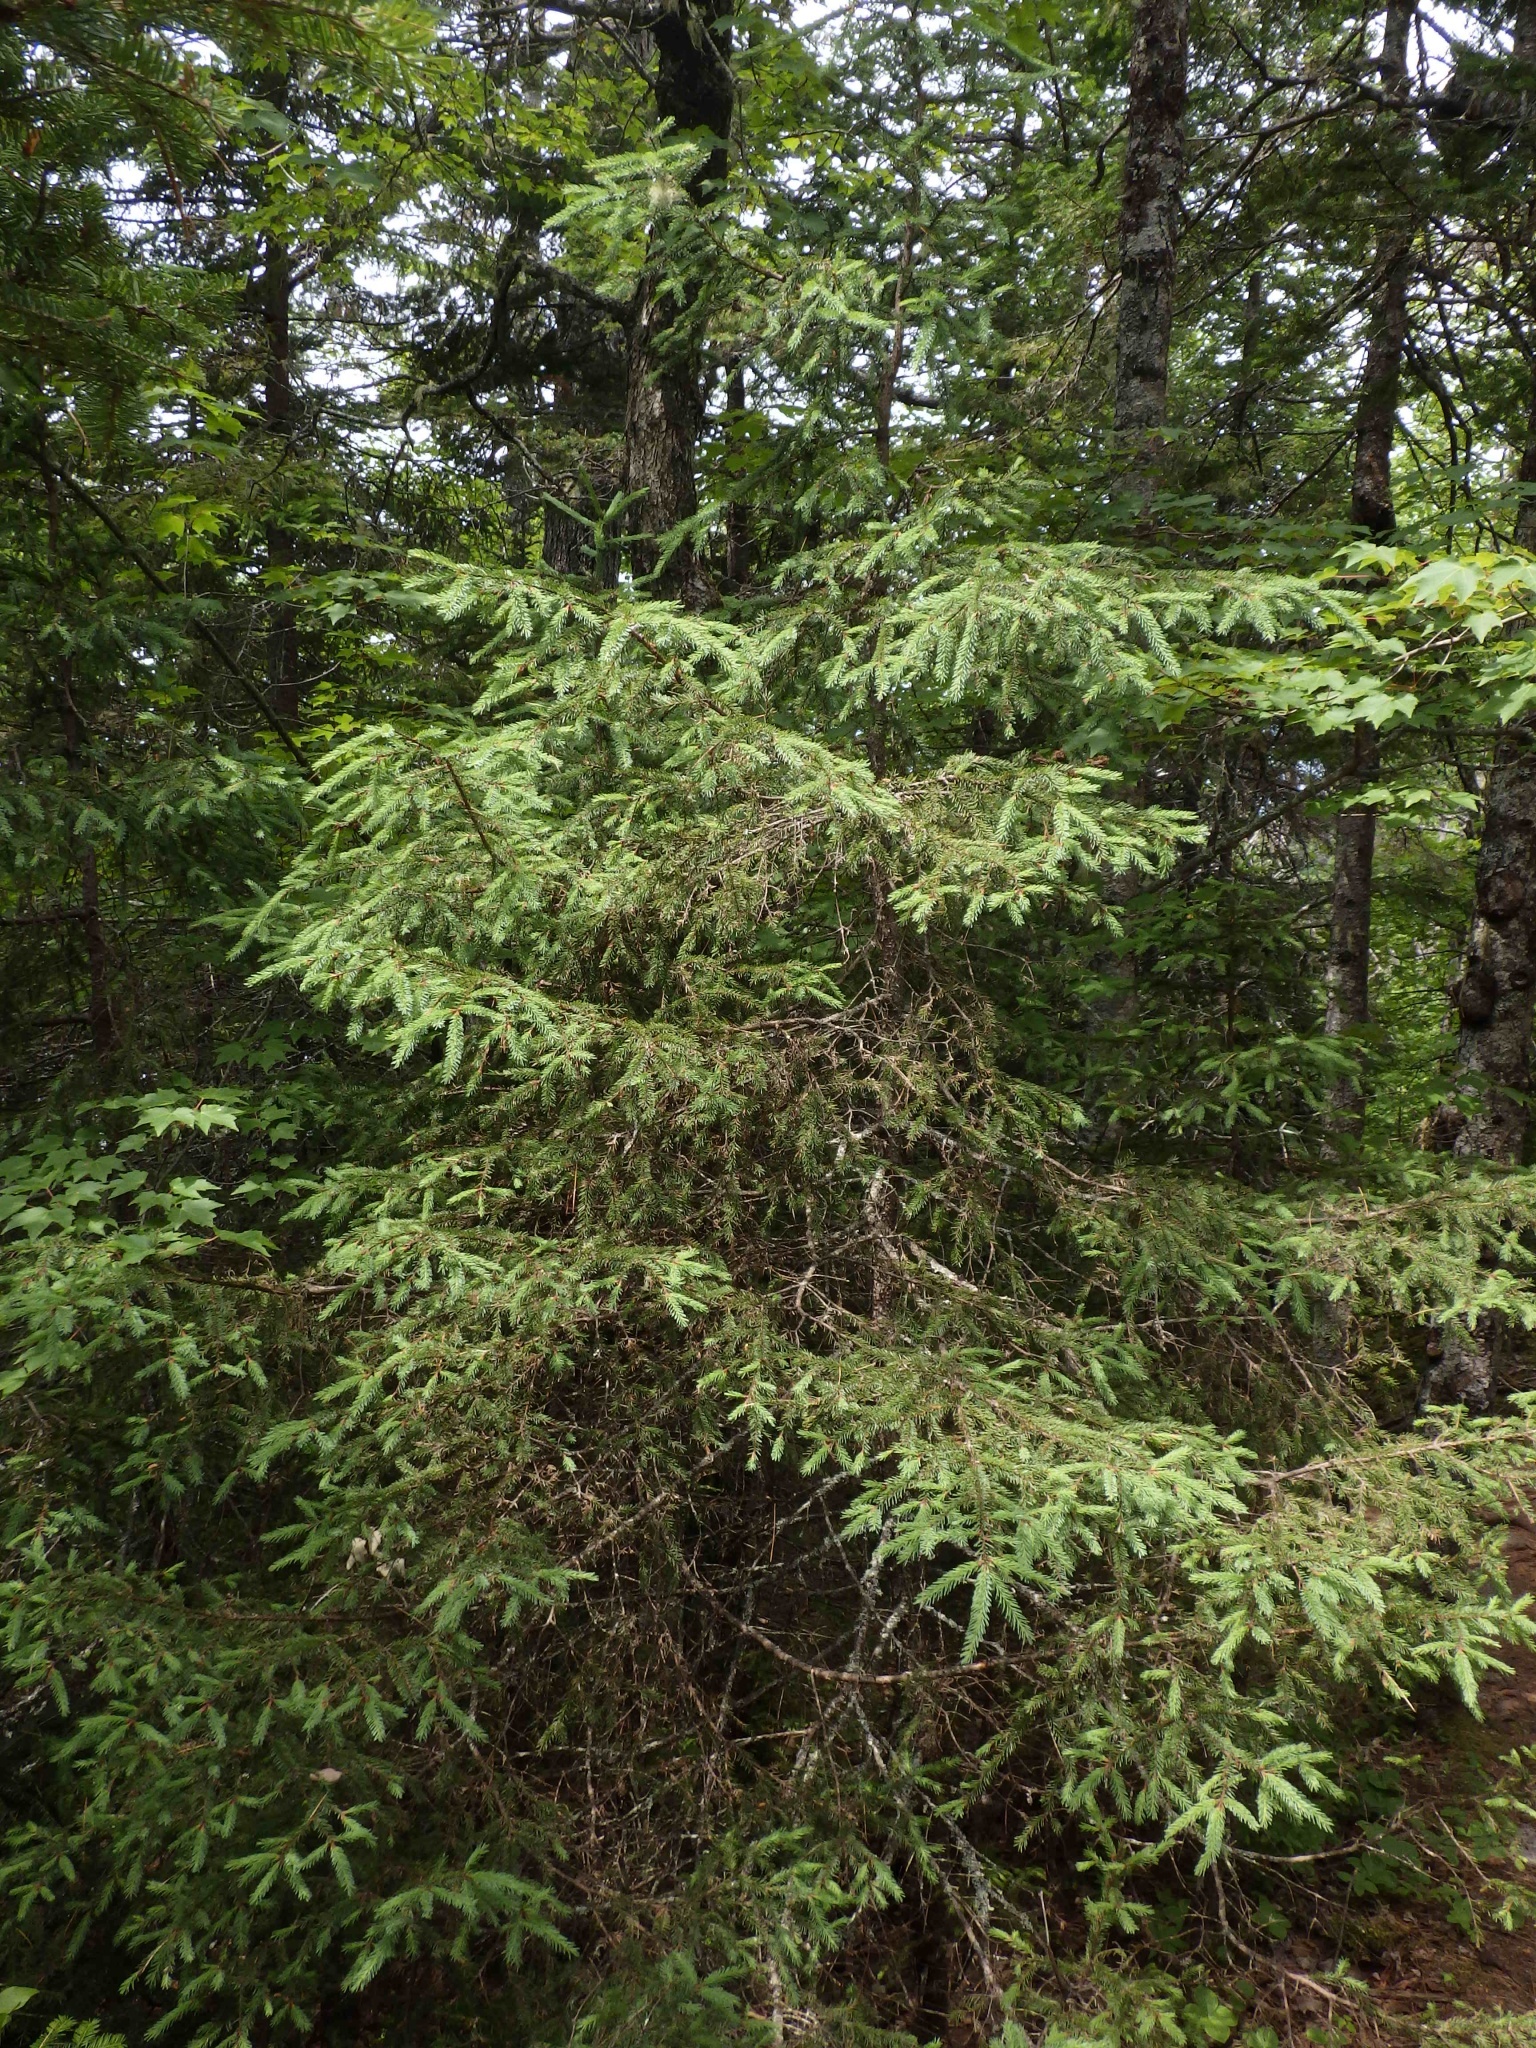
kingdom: Plantae
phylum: Tracheophyta
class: Pinopsida
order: Pinales
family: Pinaceae
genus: Picea
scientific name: Picea mariana
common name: Black spruce
